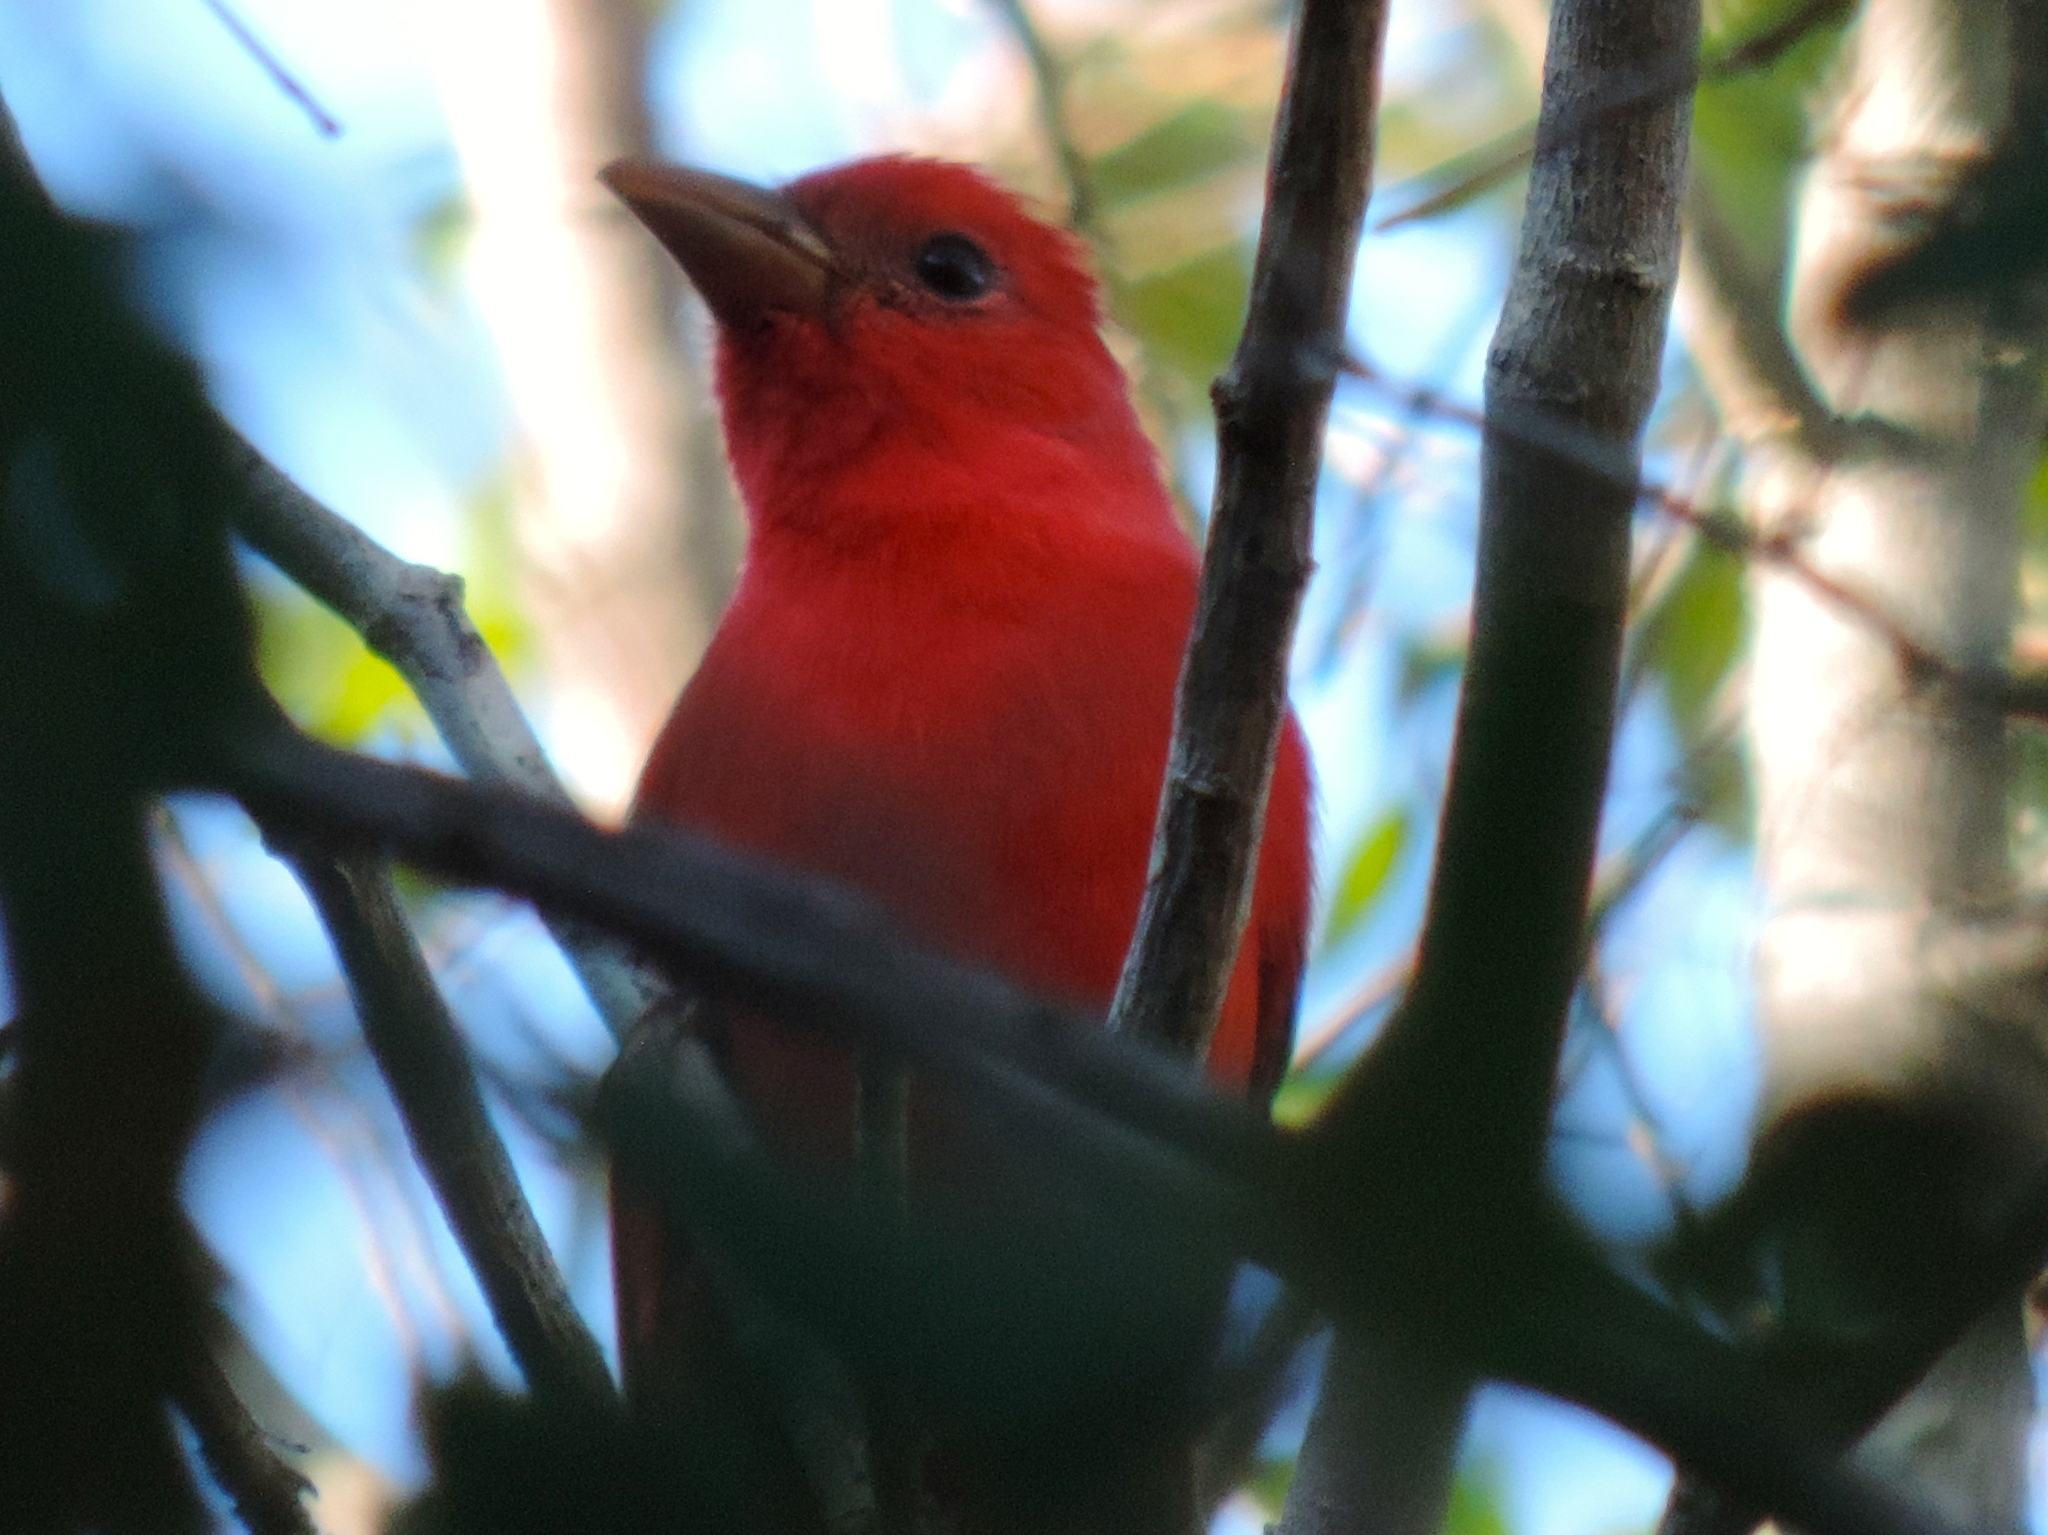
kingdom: Animalia
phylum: Chordata
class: Aves
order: Passeriformes
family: Cardinalidae
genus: Piranga
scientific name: Piranga rubra
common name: Summer tanager
